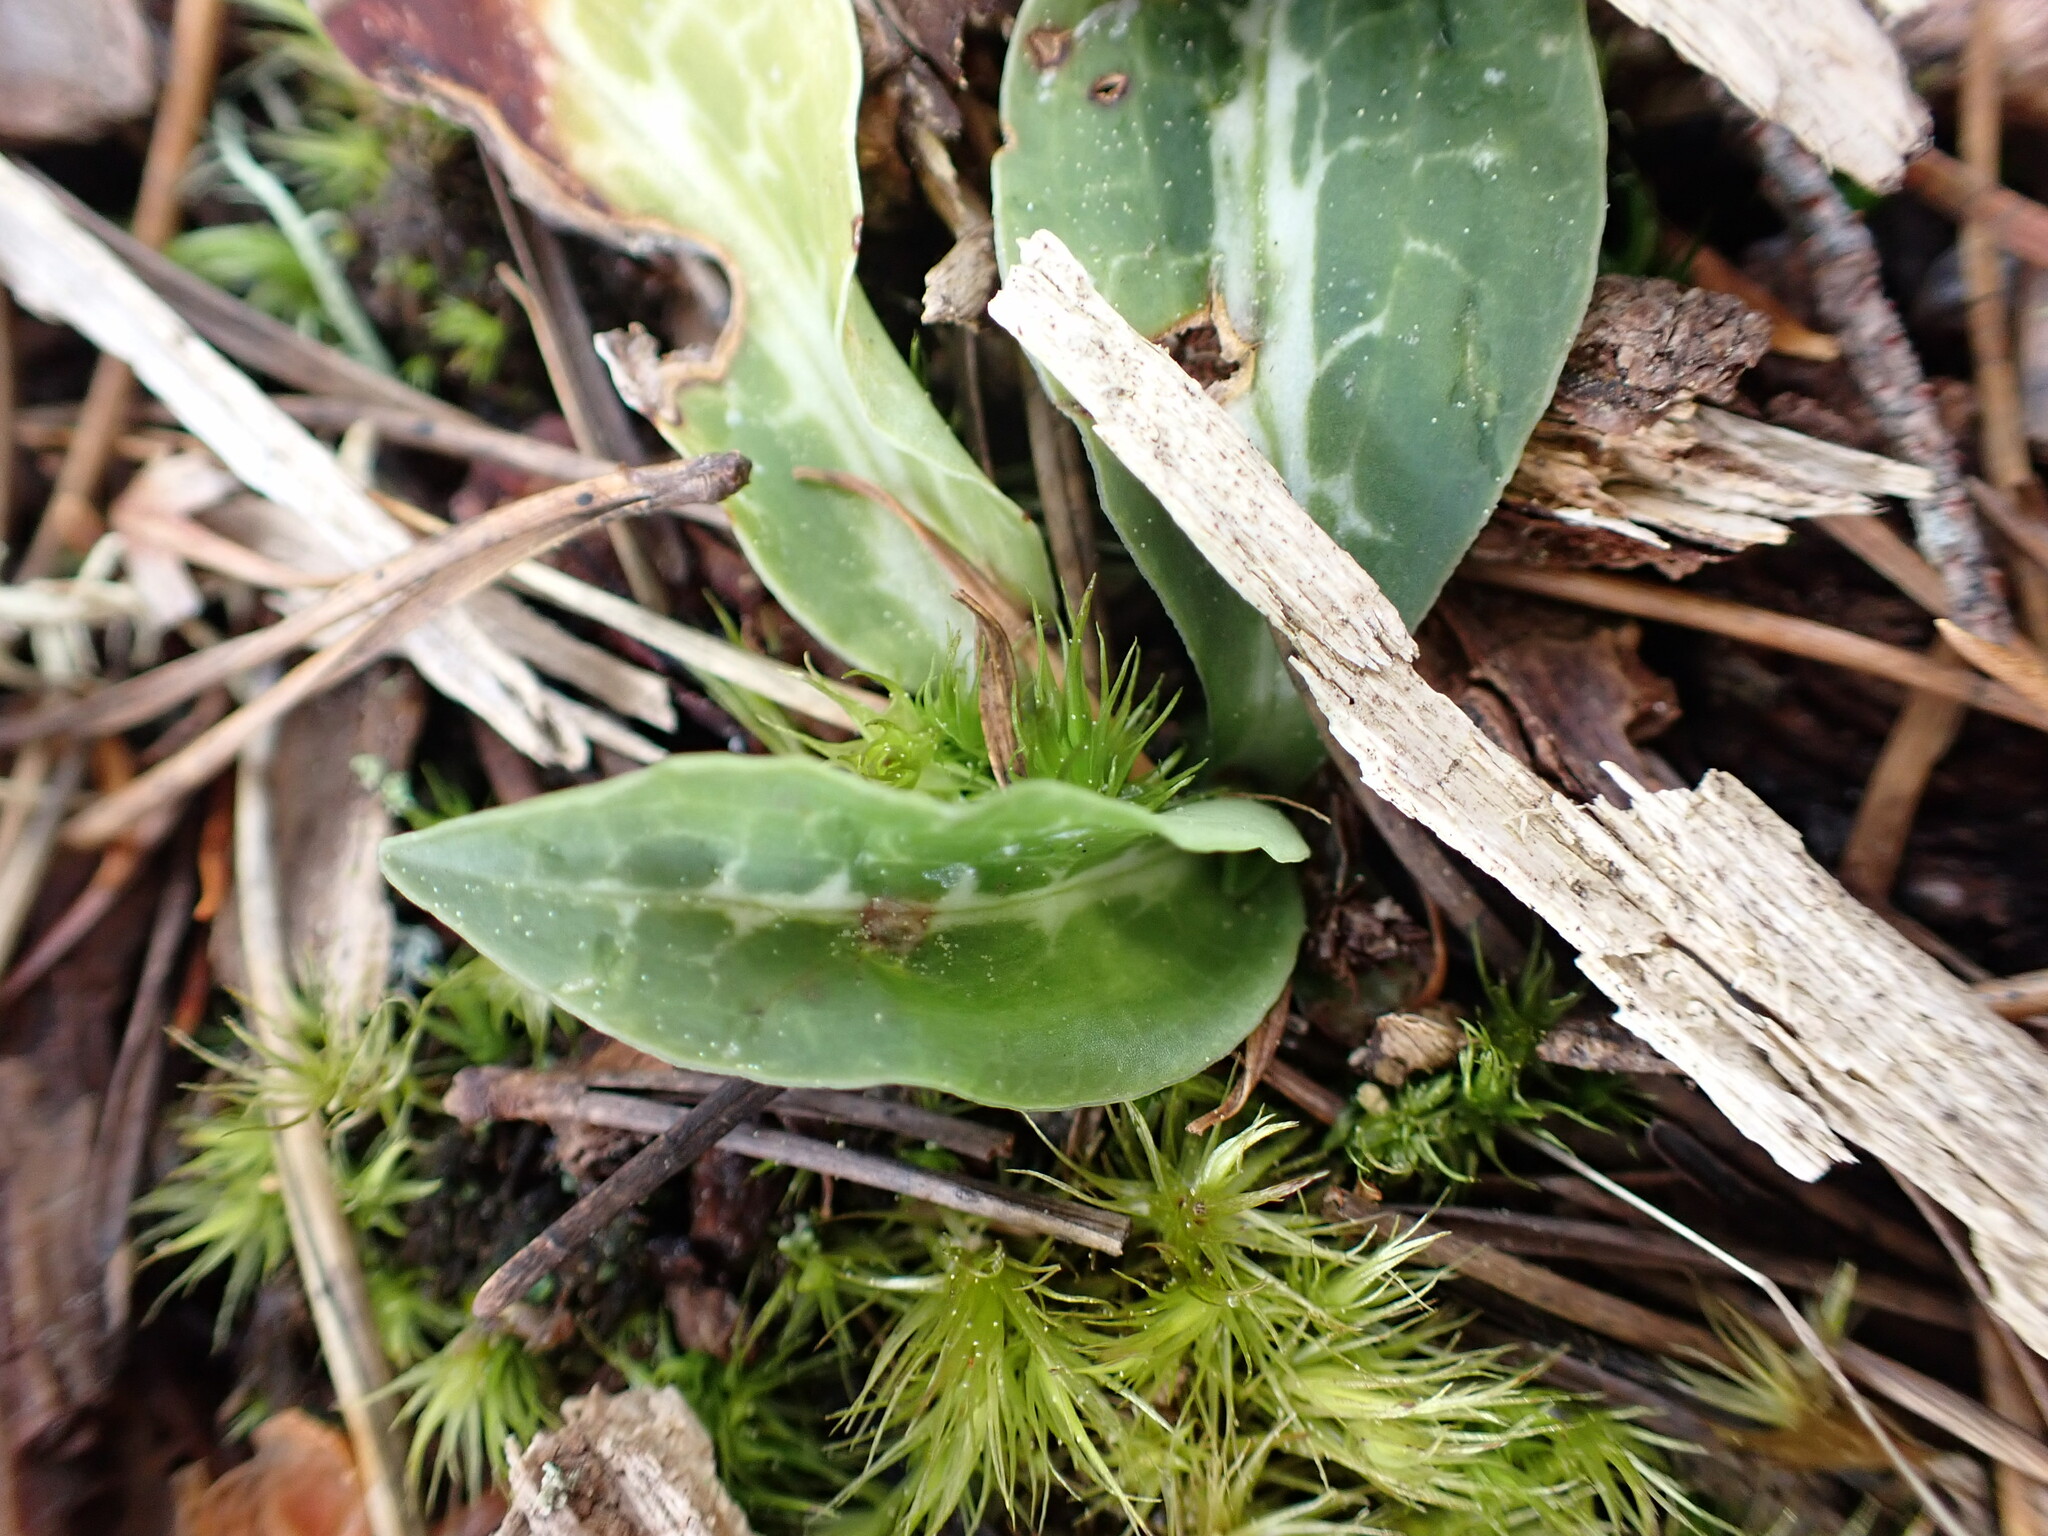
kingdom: Plantae
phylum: Tracheophyta
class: Liliopsida
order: Asparagales
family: Orchidaceae
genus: Goodyera
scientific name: Goodyera oblongifolia
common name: Giant rattlesnake-plantain
